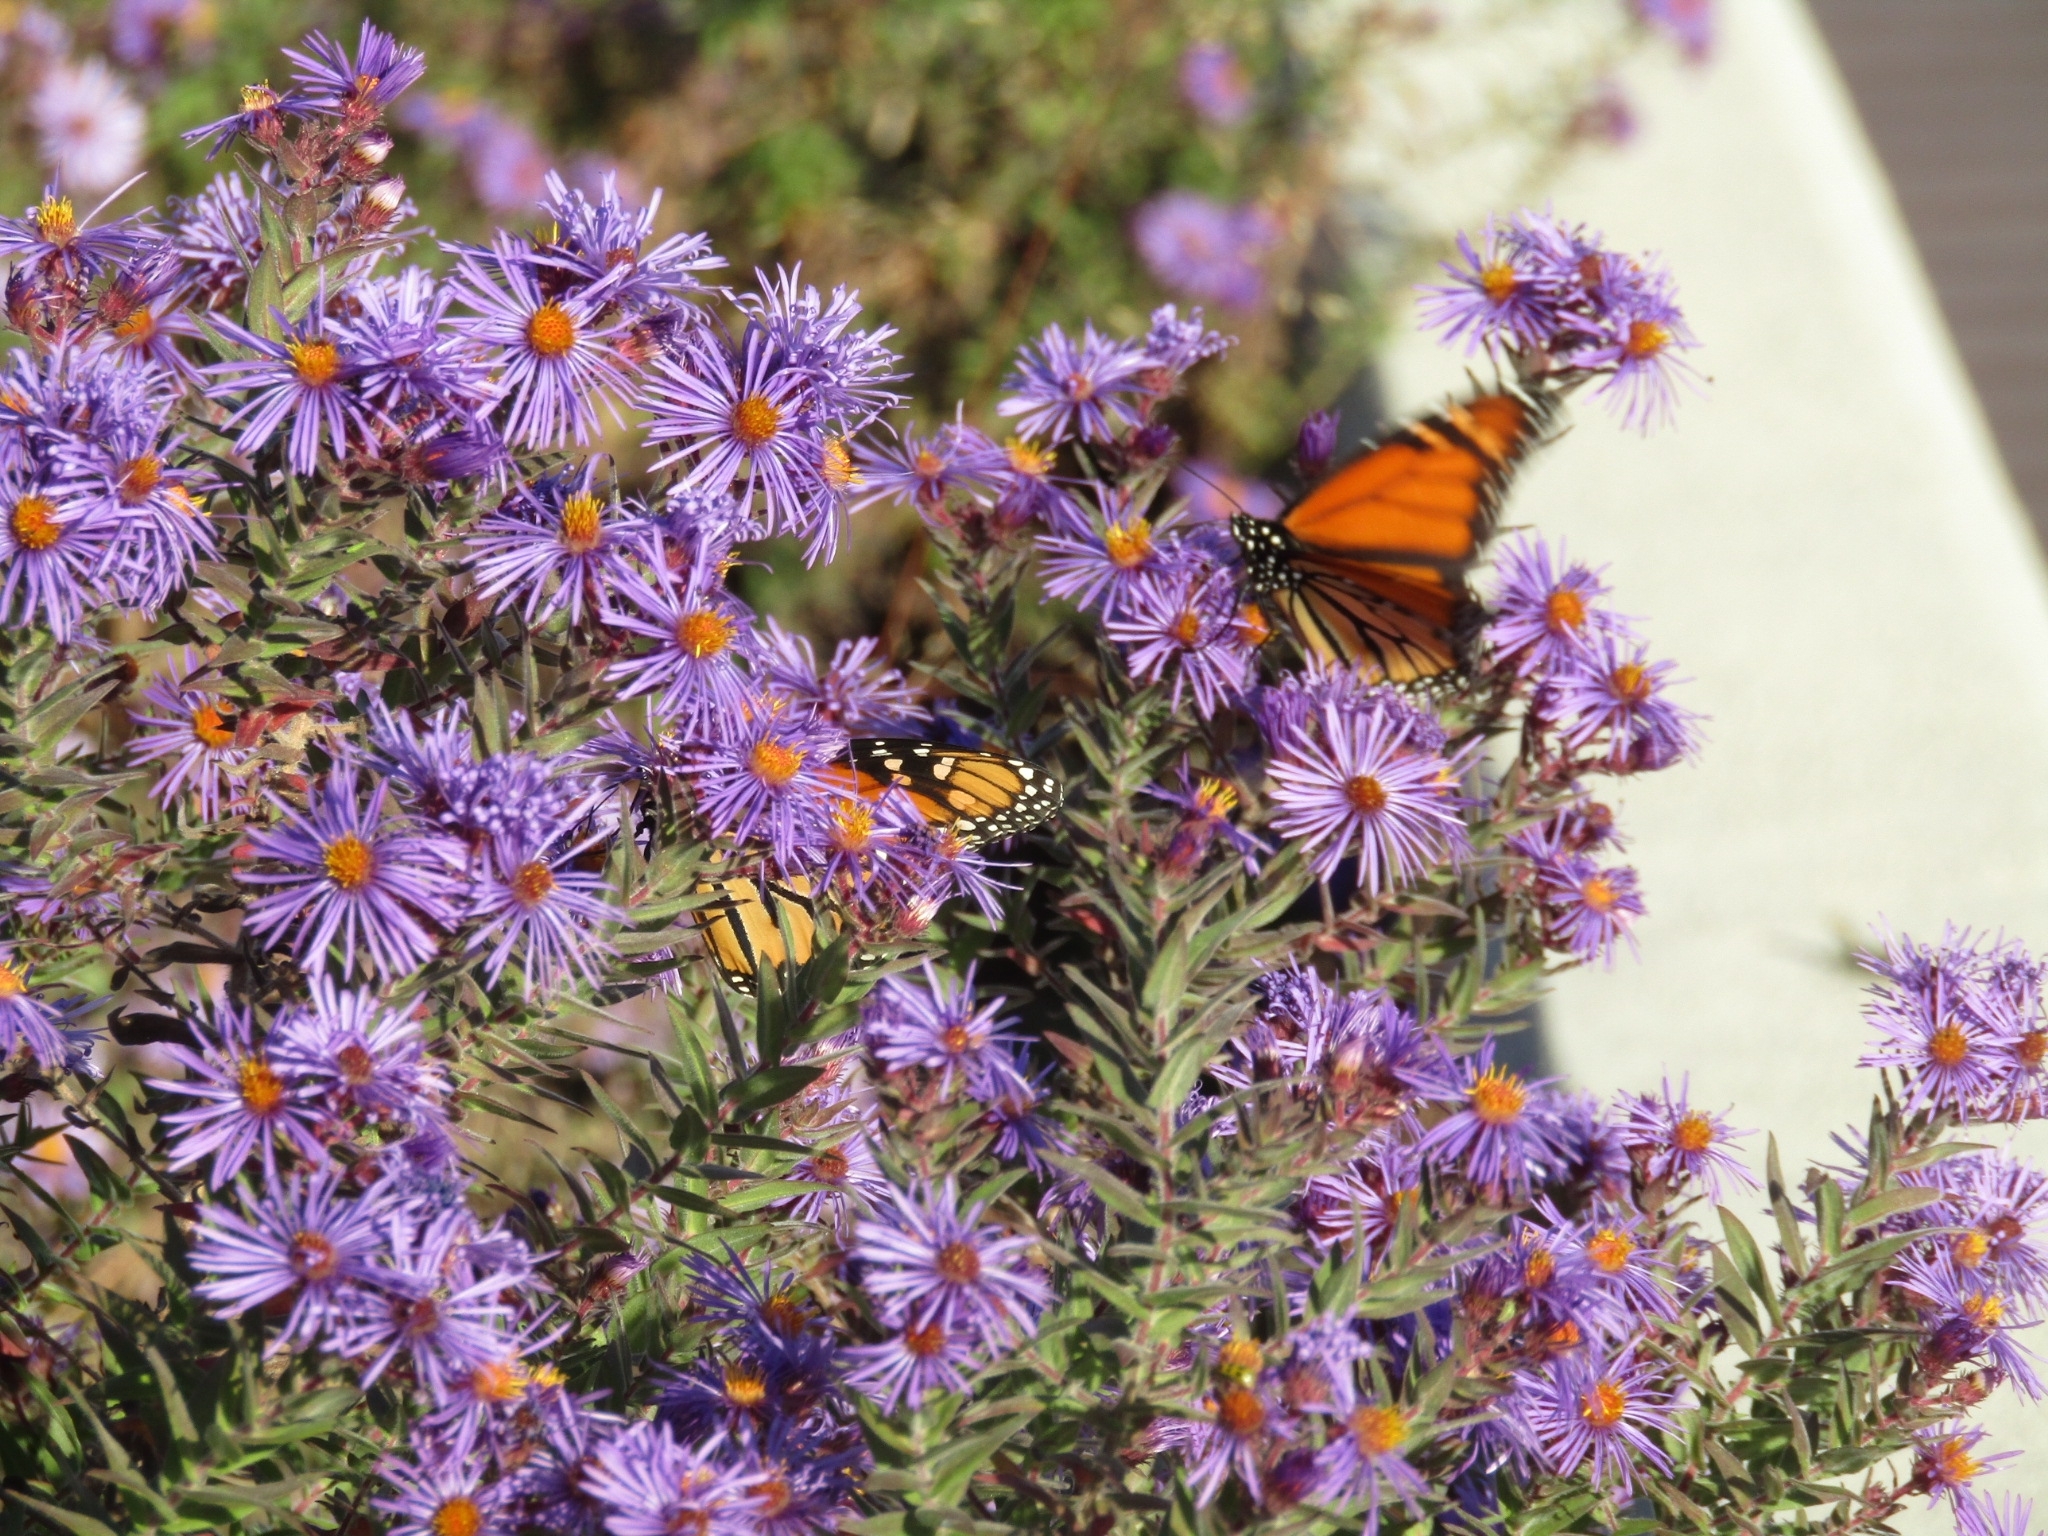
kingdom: Animalia
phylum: Arthropoda
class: Insecta
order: Lepidoptera
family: Nymphalidae
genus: Danaus
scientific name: Danaus plexippus
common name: Monarch
